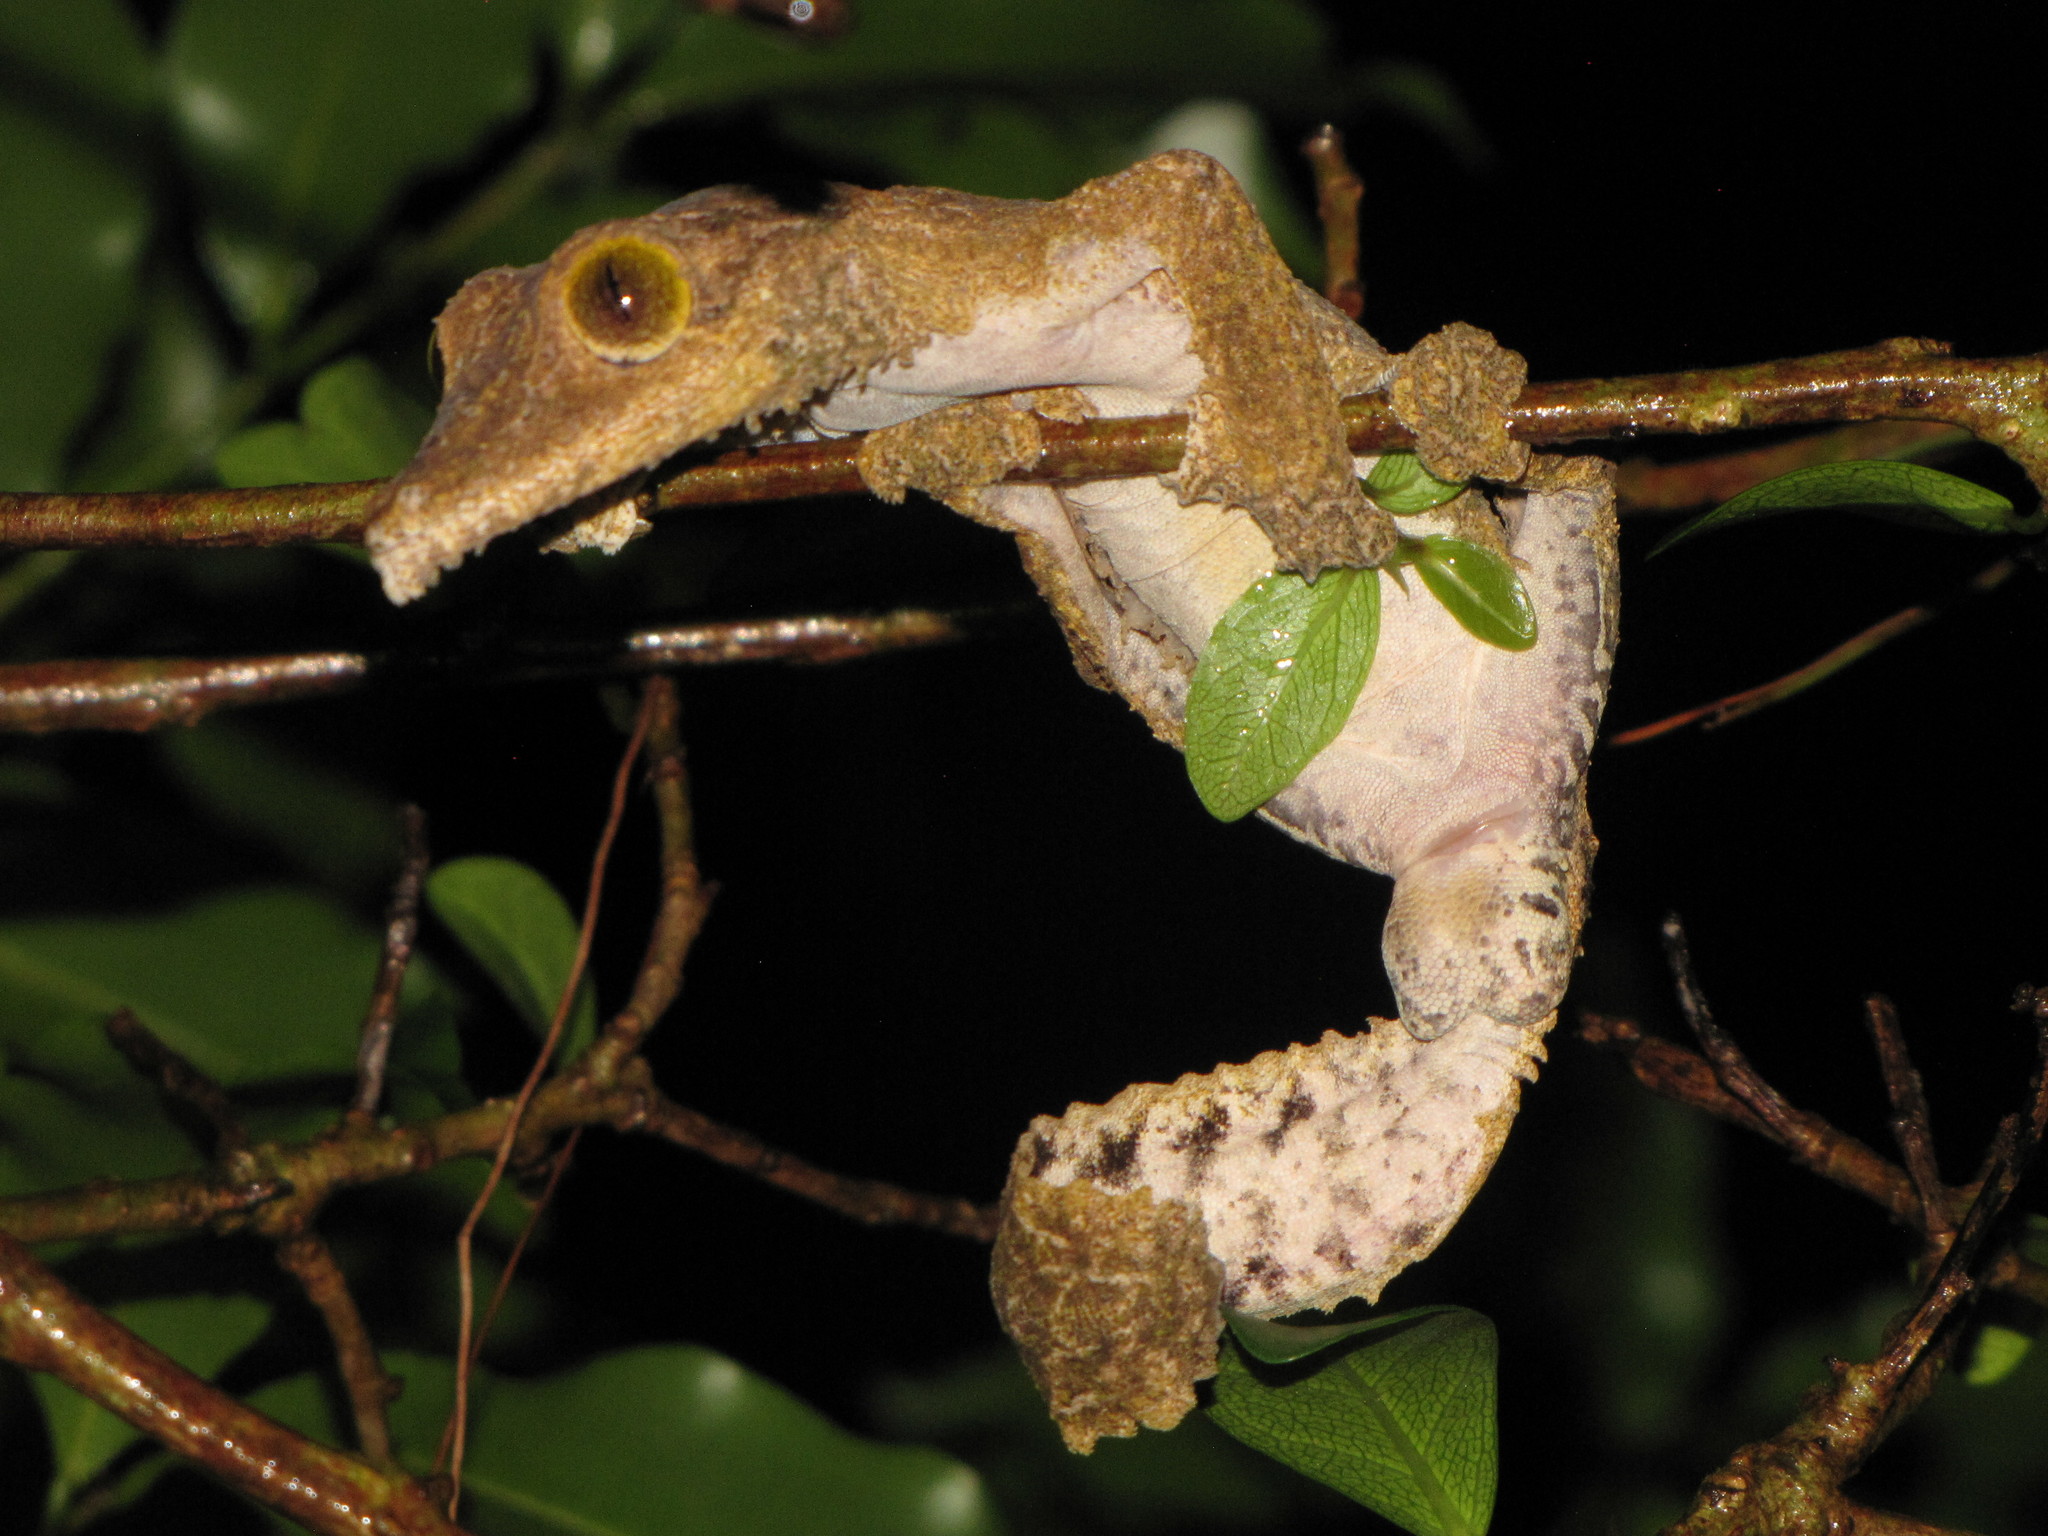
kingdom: Animalia
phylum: Chordata
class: Squamata
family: Gekkonidae
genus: Uroplatus
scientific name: Uroplatus sikorae
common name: Southern flat-tail gecko
